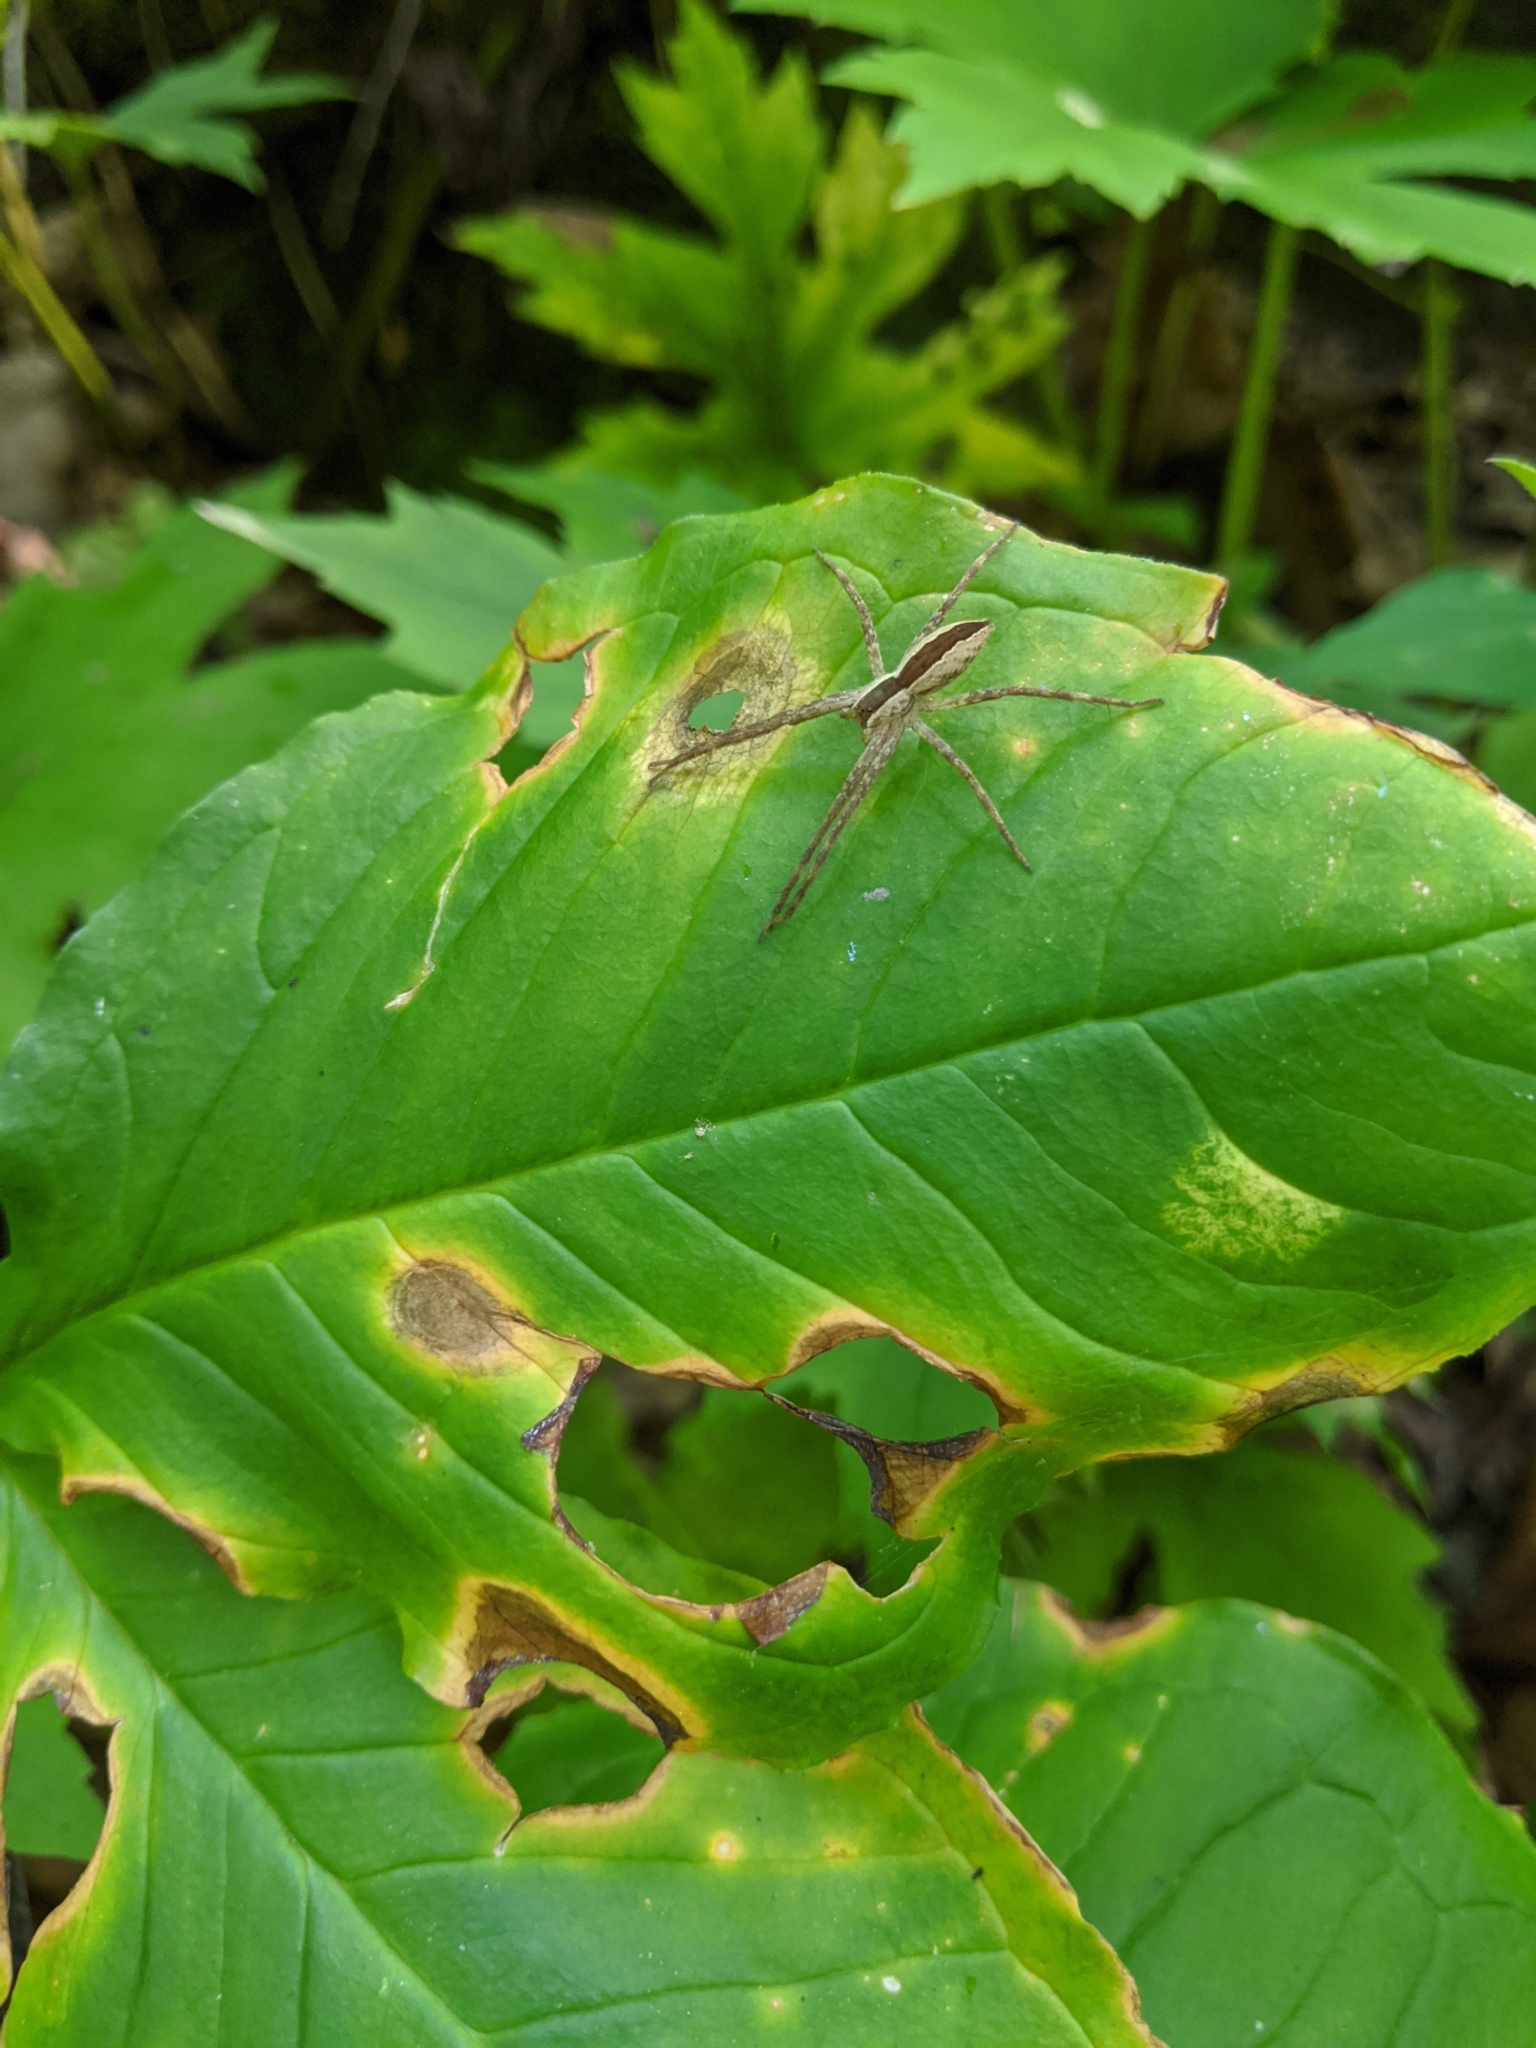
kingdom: Animalia
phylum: Arthropoda
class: Arachnida
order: Araneae
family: Pisauridae
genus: Pisaurina
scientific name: Pisaurina mira
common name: American nursery web spider
